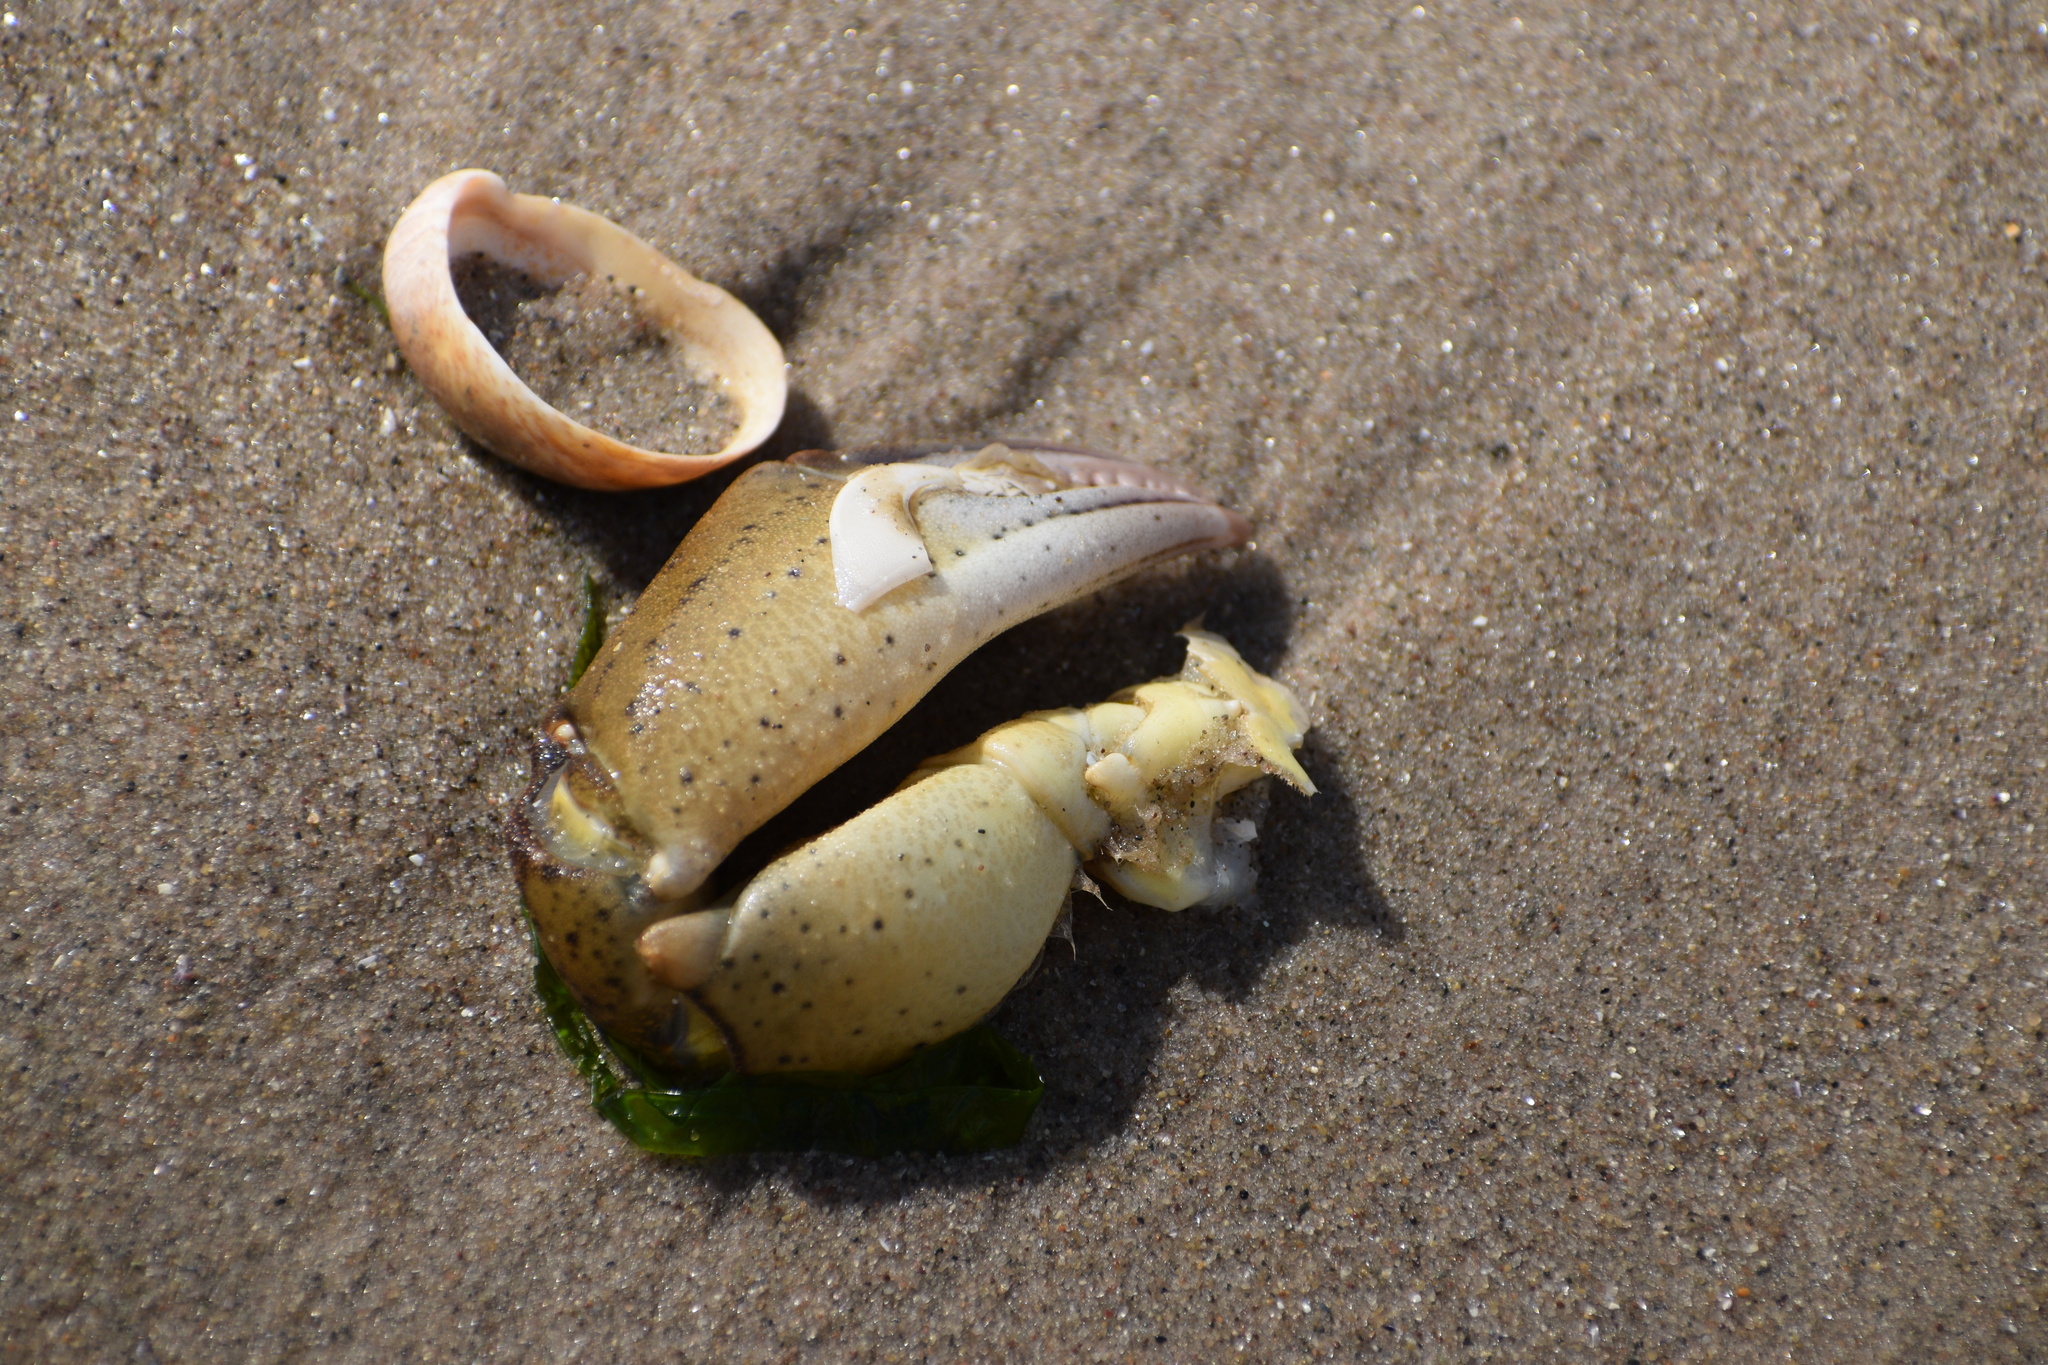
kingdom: Animalia
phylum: Arthropoda
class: Malacostraca
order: Decapoda
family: Carcinidae
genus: Carcinus
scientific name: Carcinus maenas
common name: European green crab
